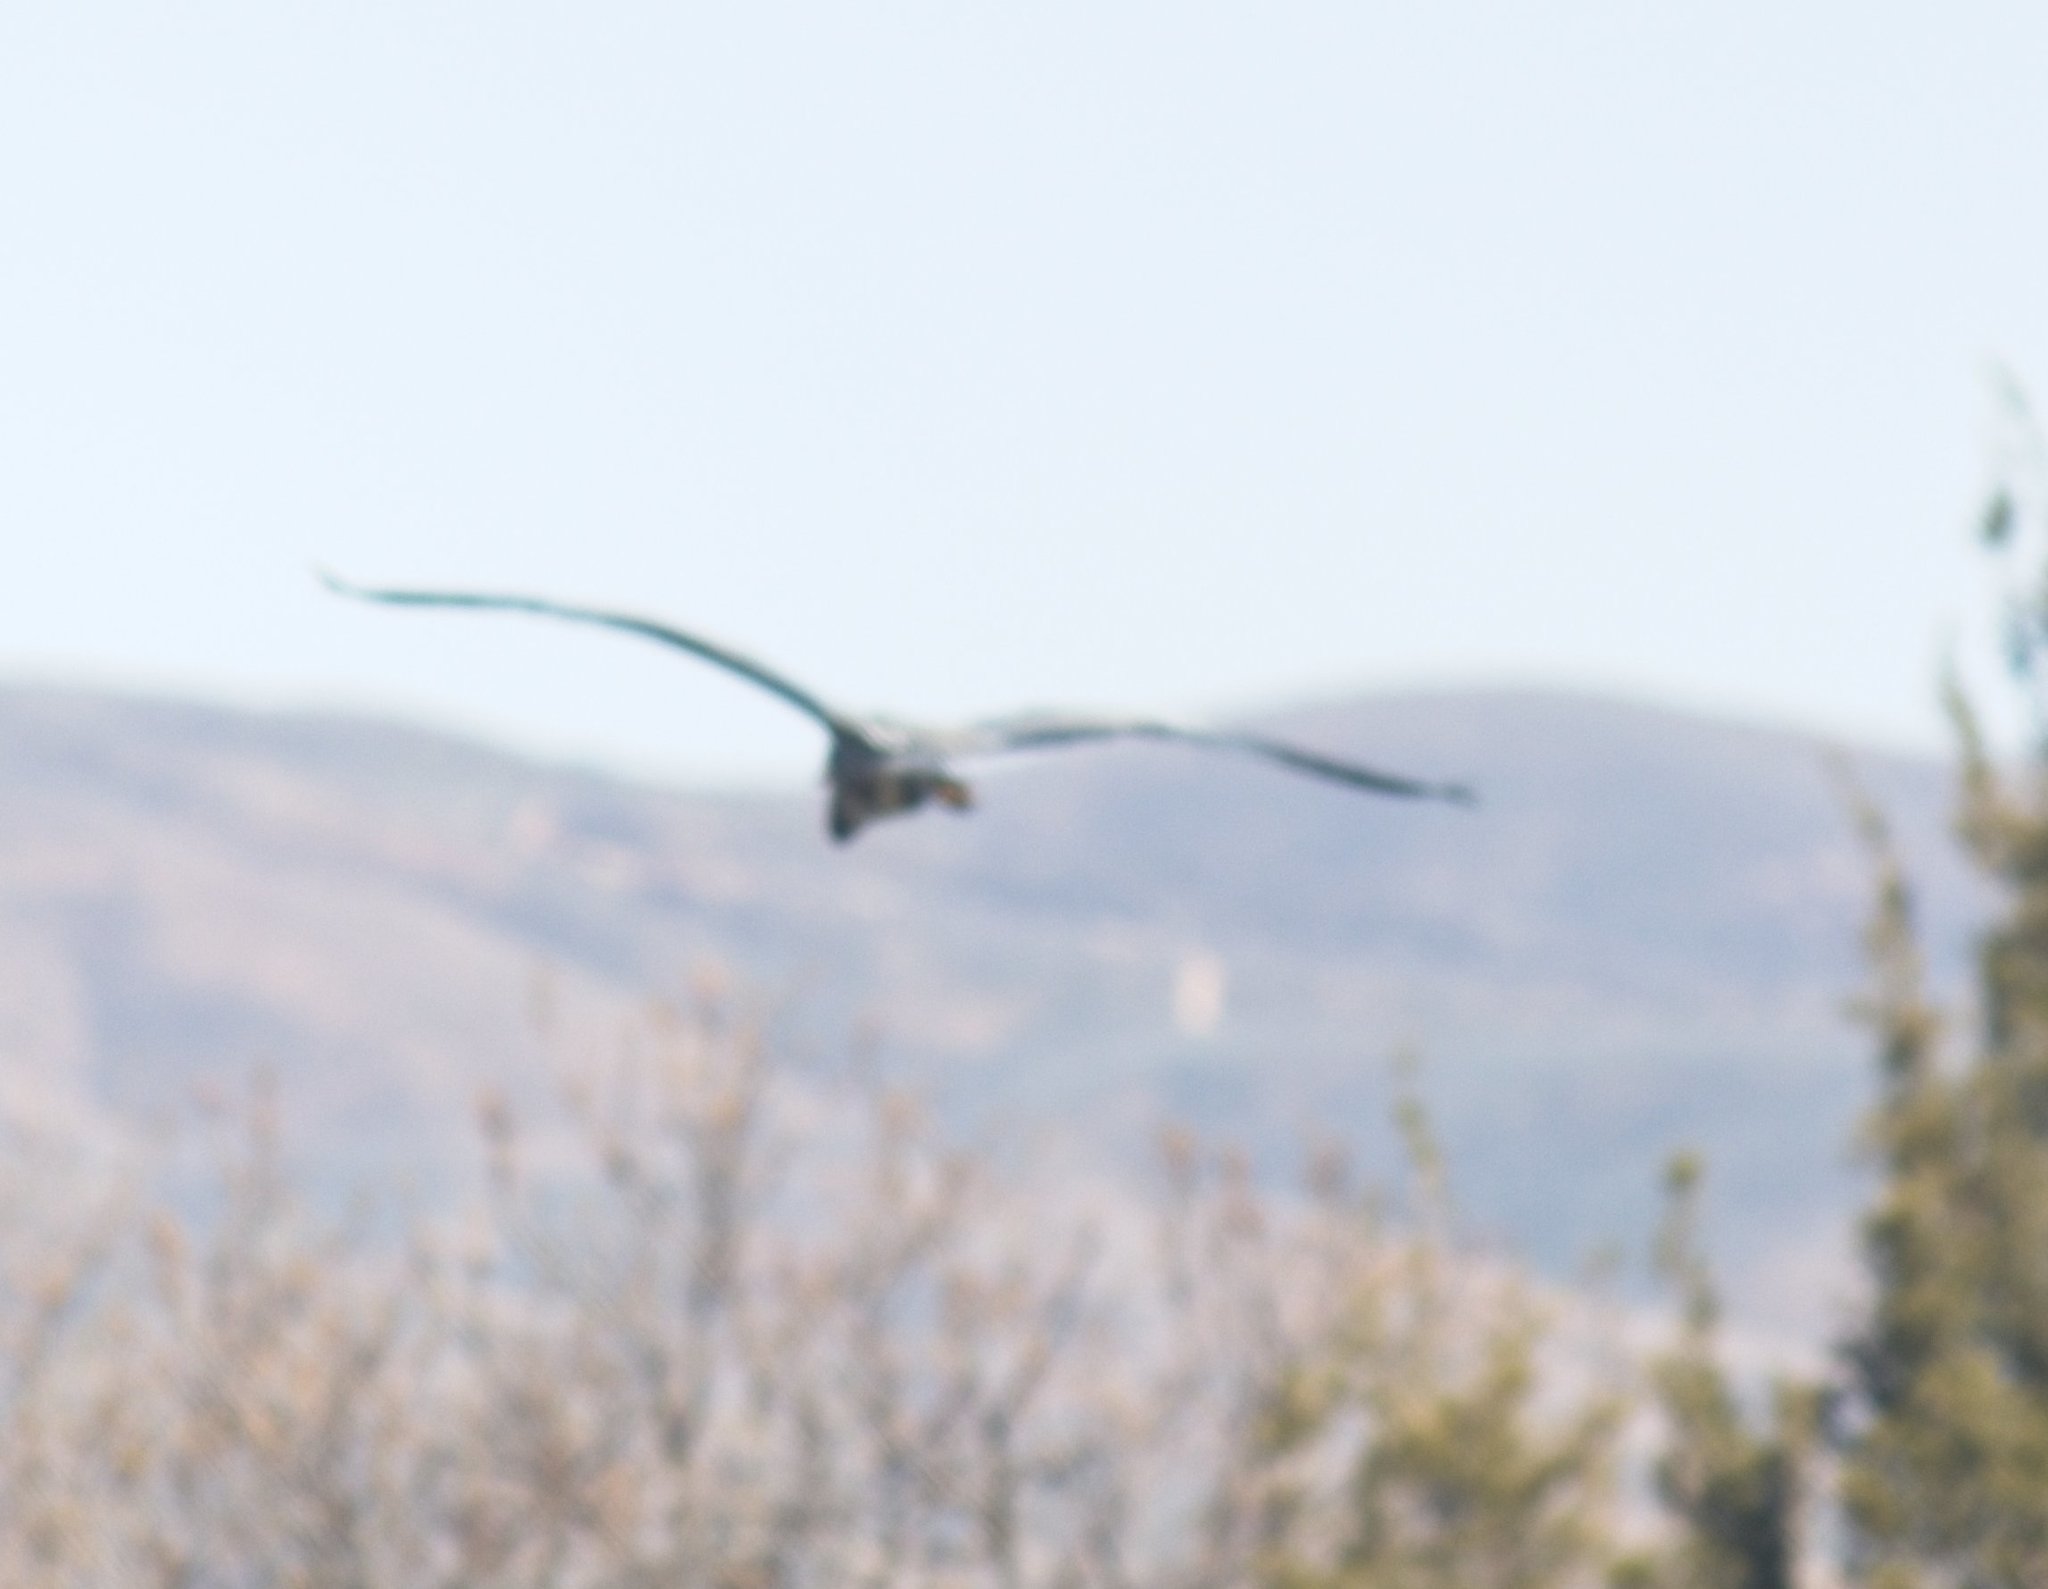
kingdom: Animalia
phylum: Chordata
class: Aves
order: Pelecaniformes
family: Ardeidae
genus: Ardea
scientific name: Ardea herodias
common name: Great blue heron
